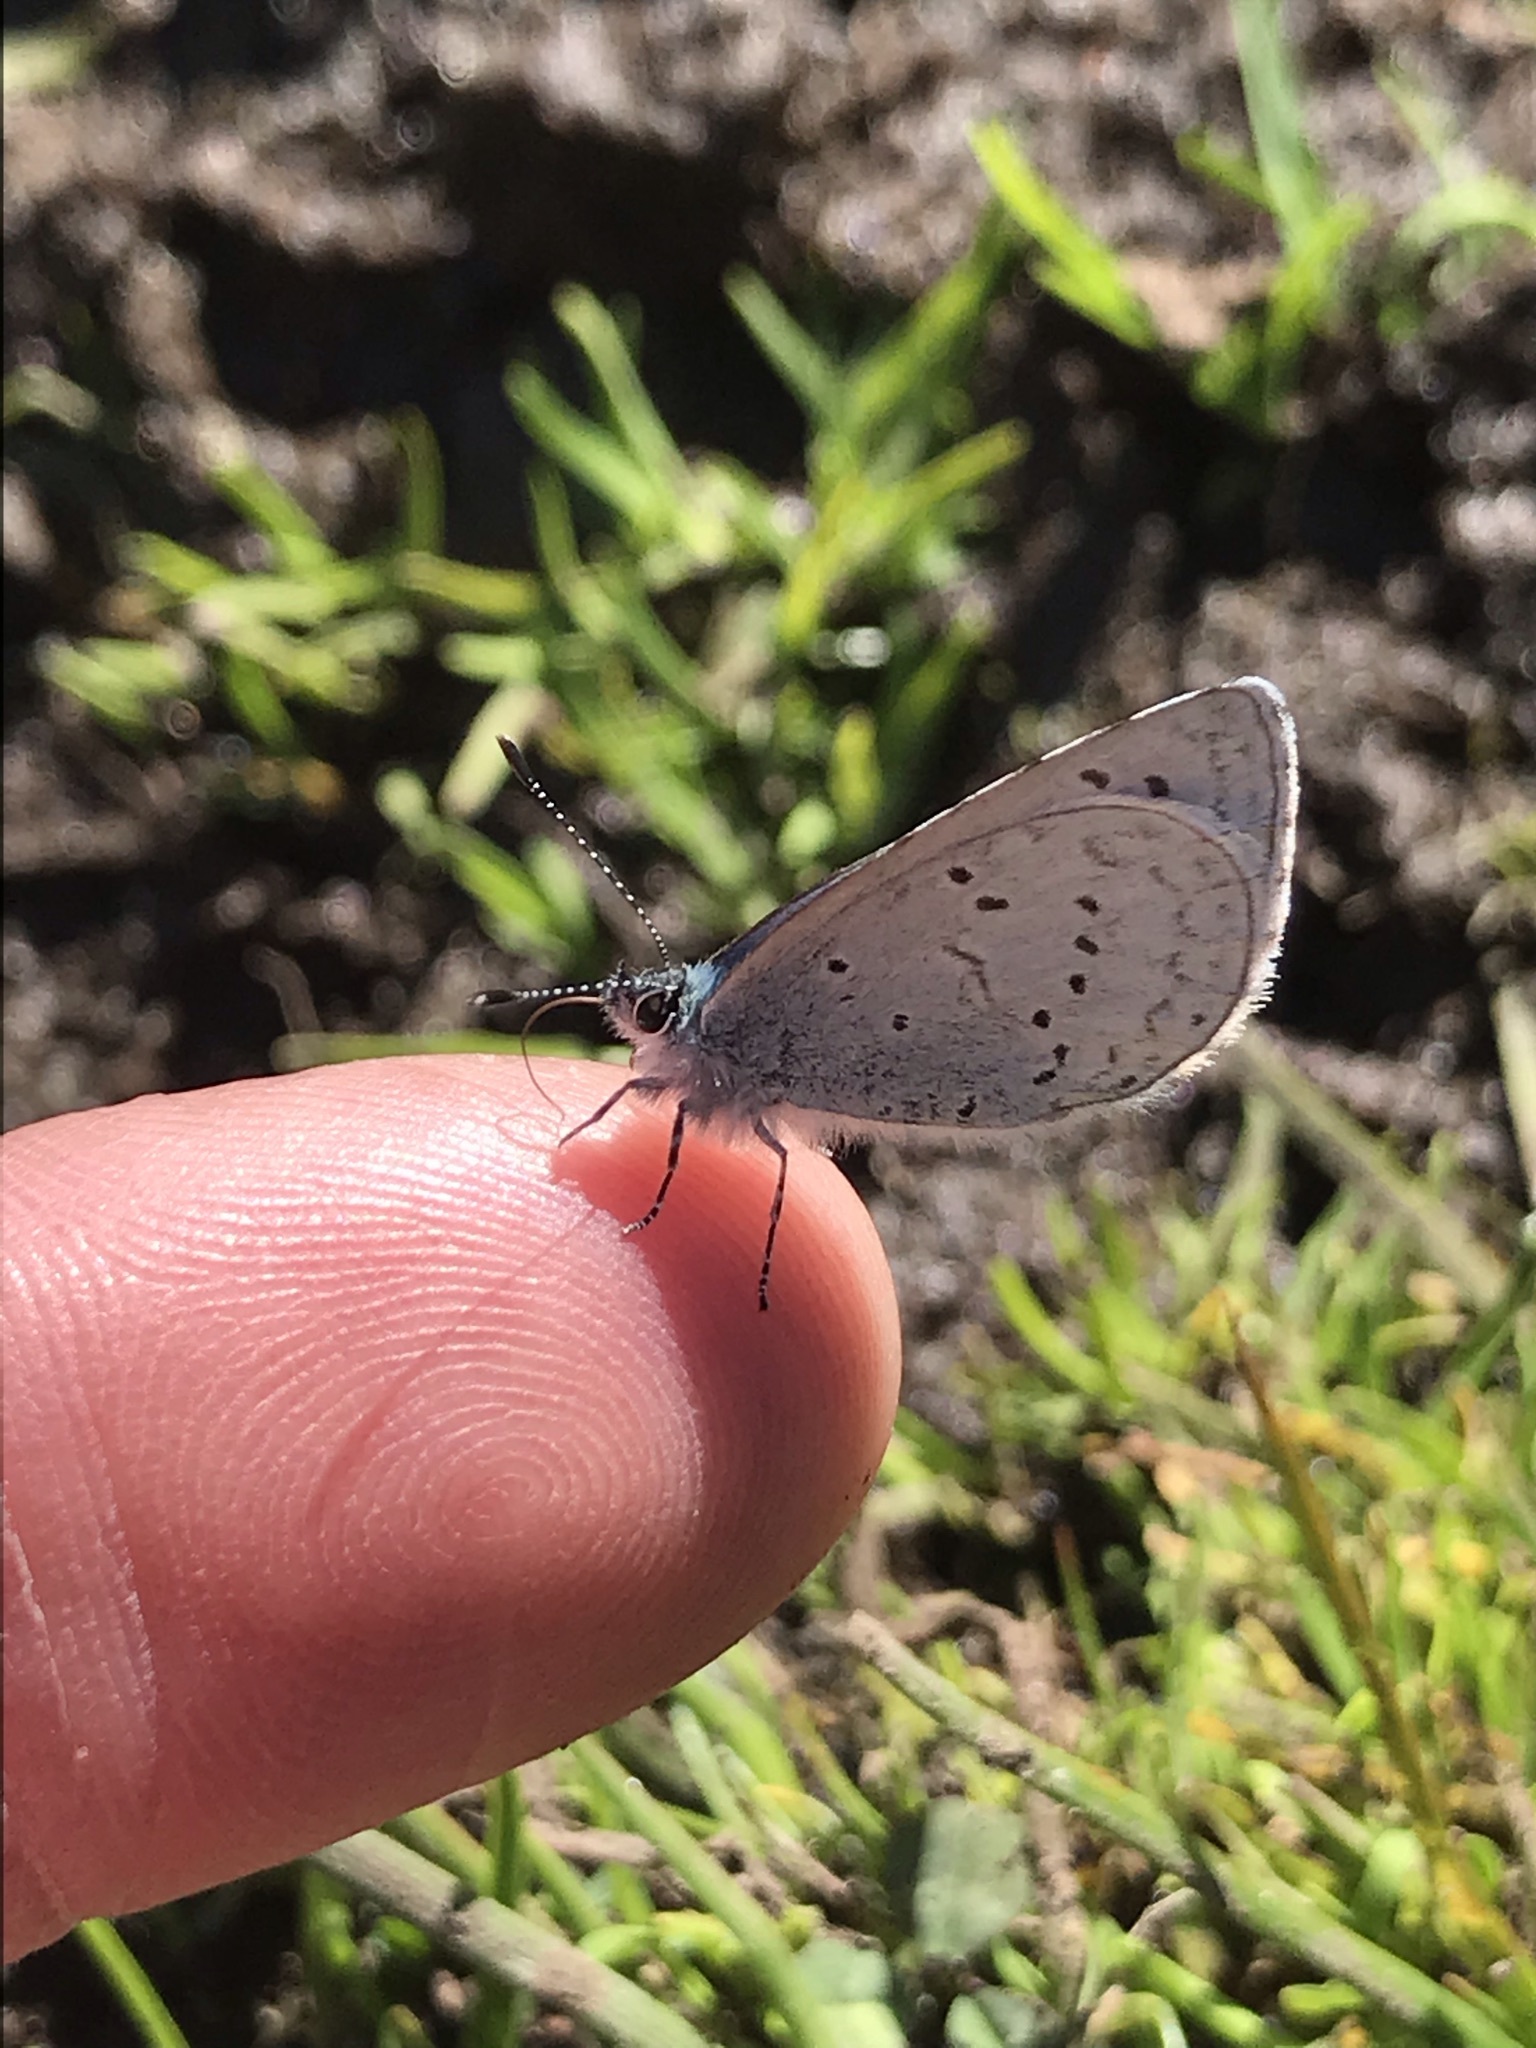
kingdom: Animalia
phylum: Arthropoda
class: Insecta
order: Lepidoptera
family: Lycaenidae
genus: Celastrina
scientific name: Celastrina ladon
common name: Spring azure
